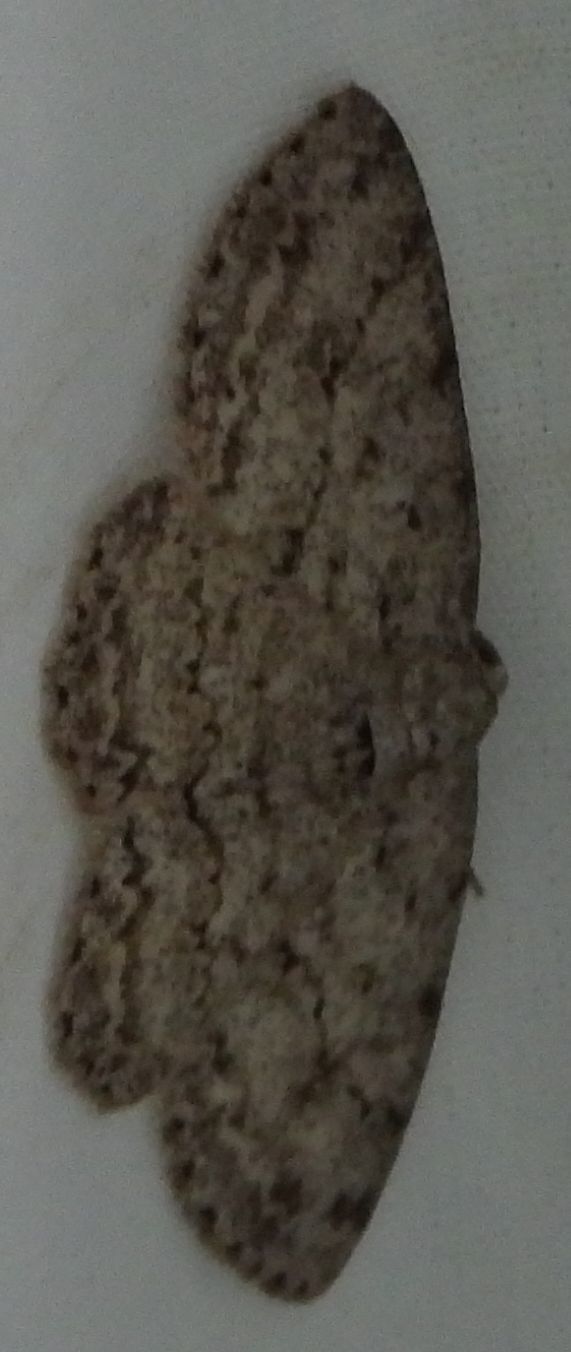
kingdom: Animalia
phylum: Arthropoda
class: Insecta
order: Lepidoptera
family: Geometridae
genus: Ectropis
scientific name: Ectropis crepuscularia
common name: Engrailed
